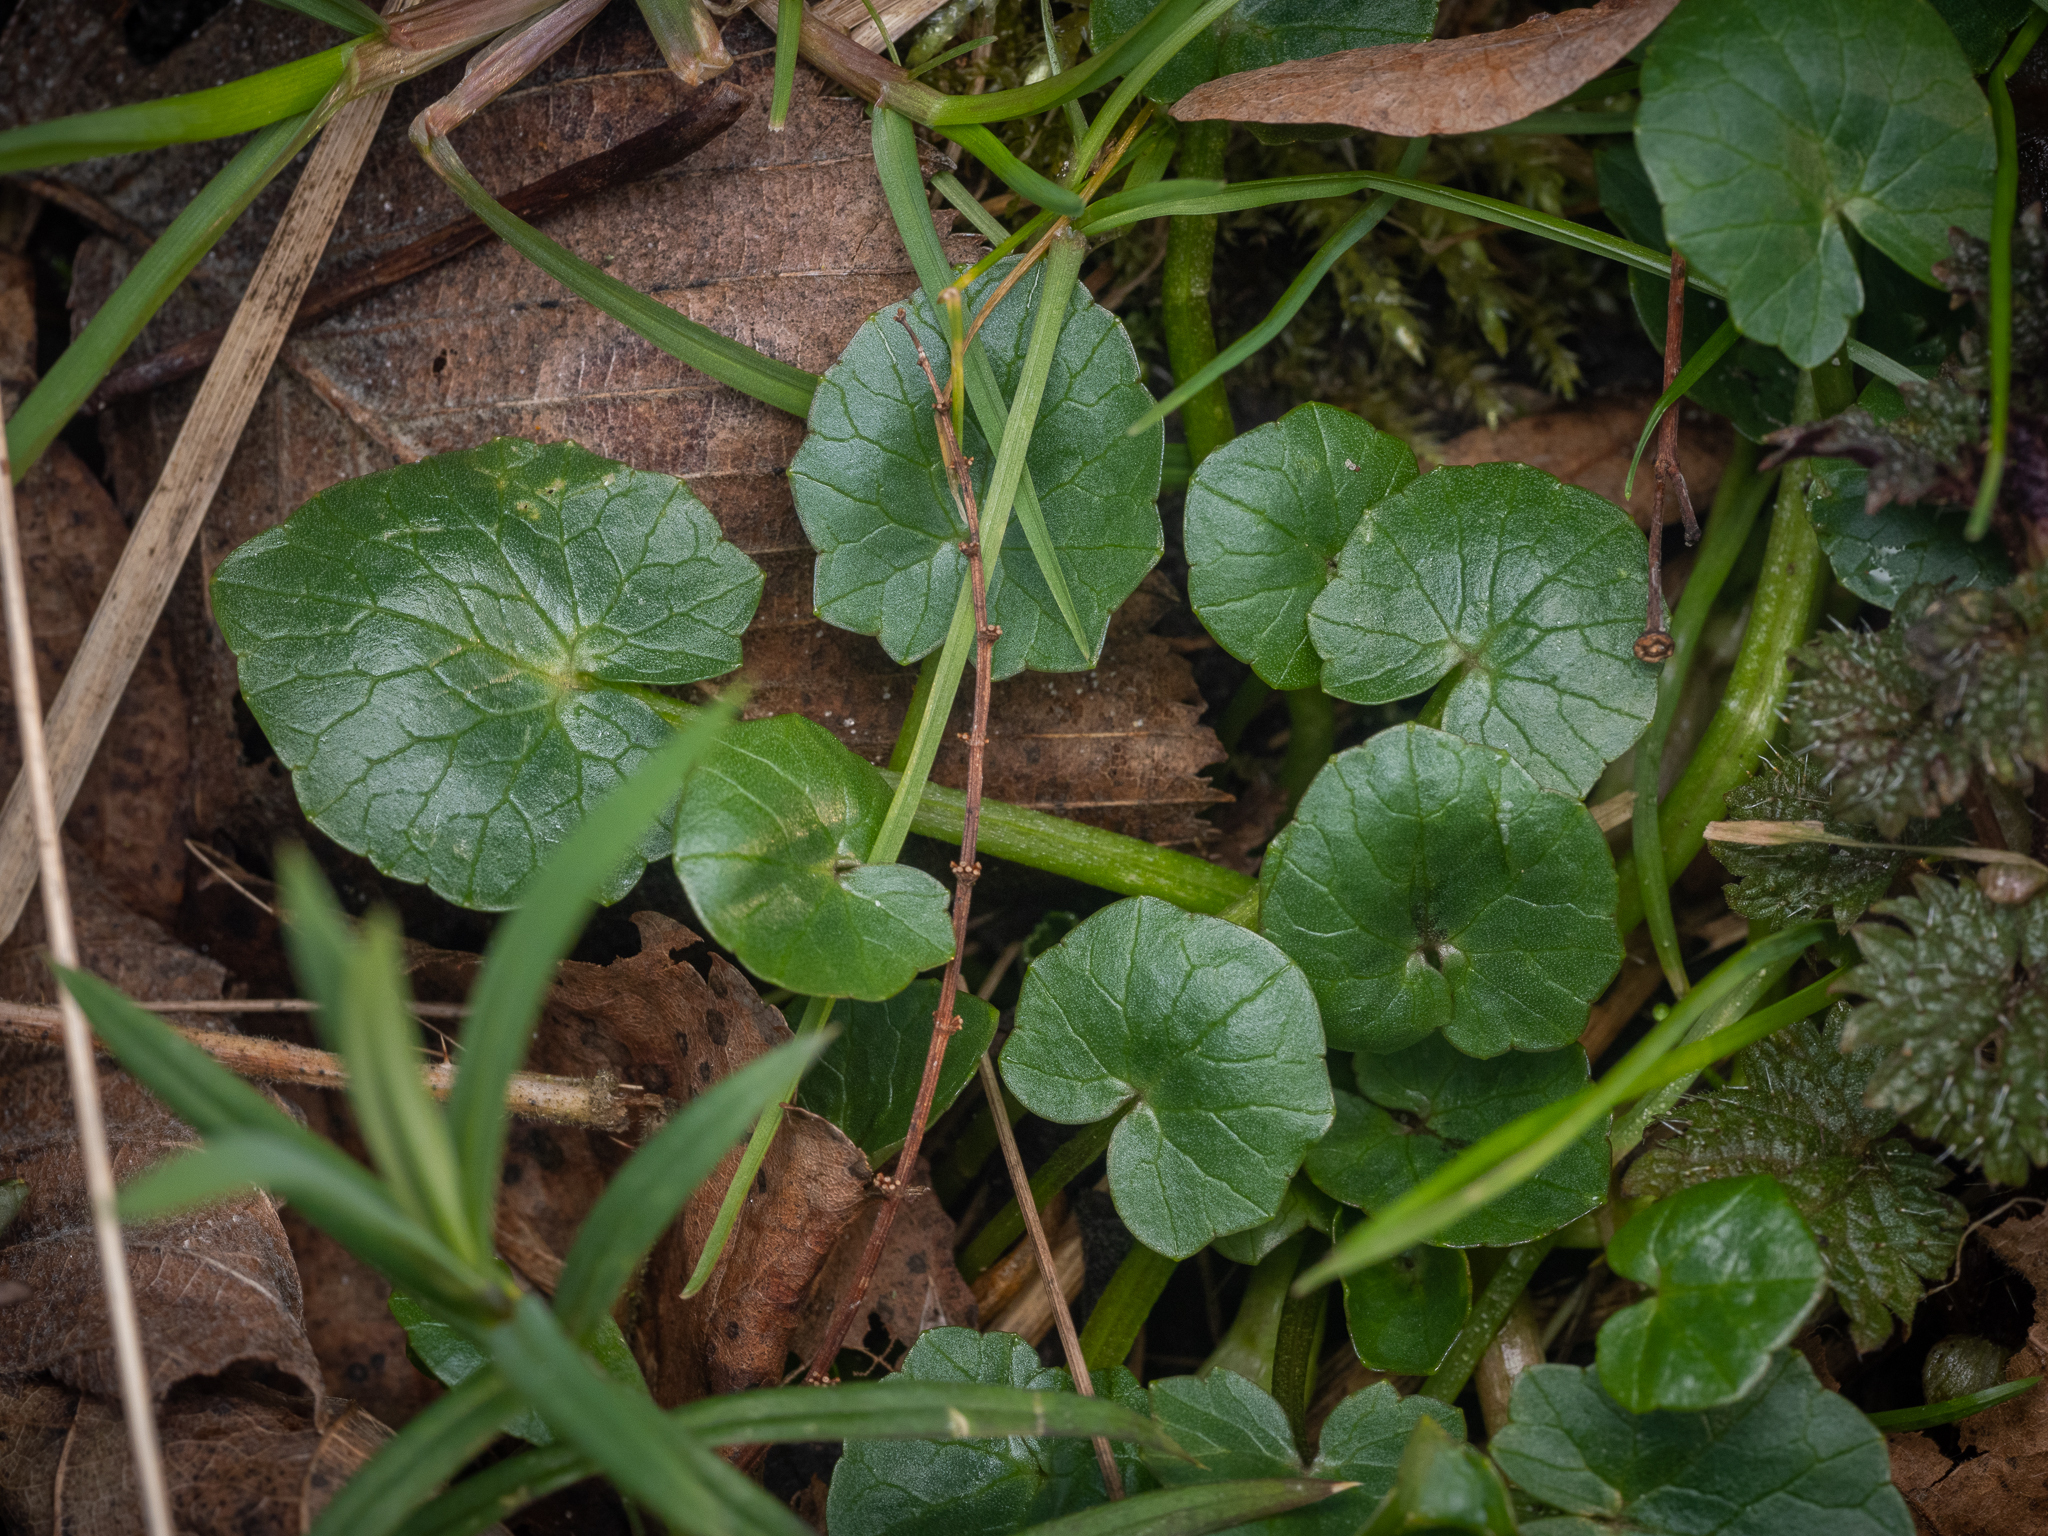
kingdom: Plantae
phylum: Tracheophyta
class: Magnoliopsida
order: Ranunculales
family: Ranunculaceae
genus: Ficaria
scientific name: Ficaria verna
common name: Lesser celandine
